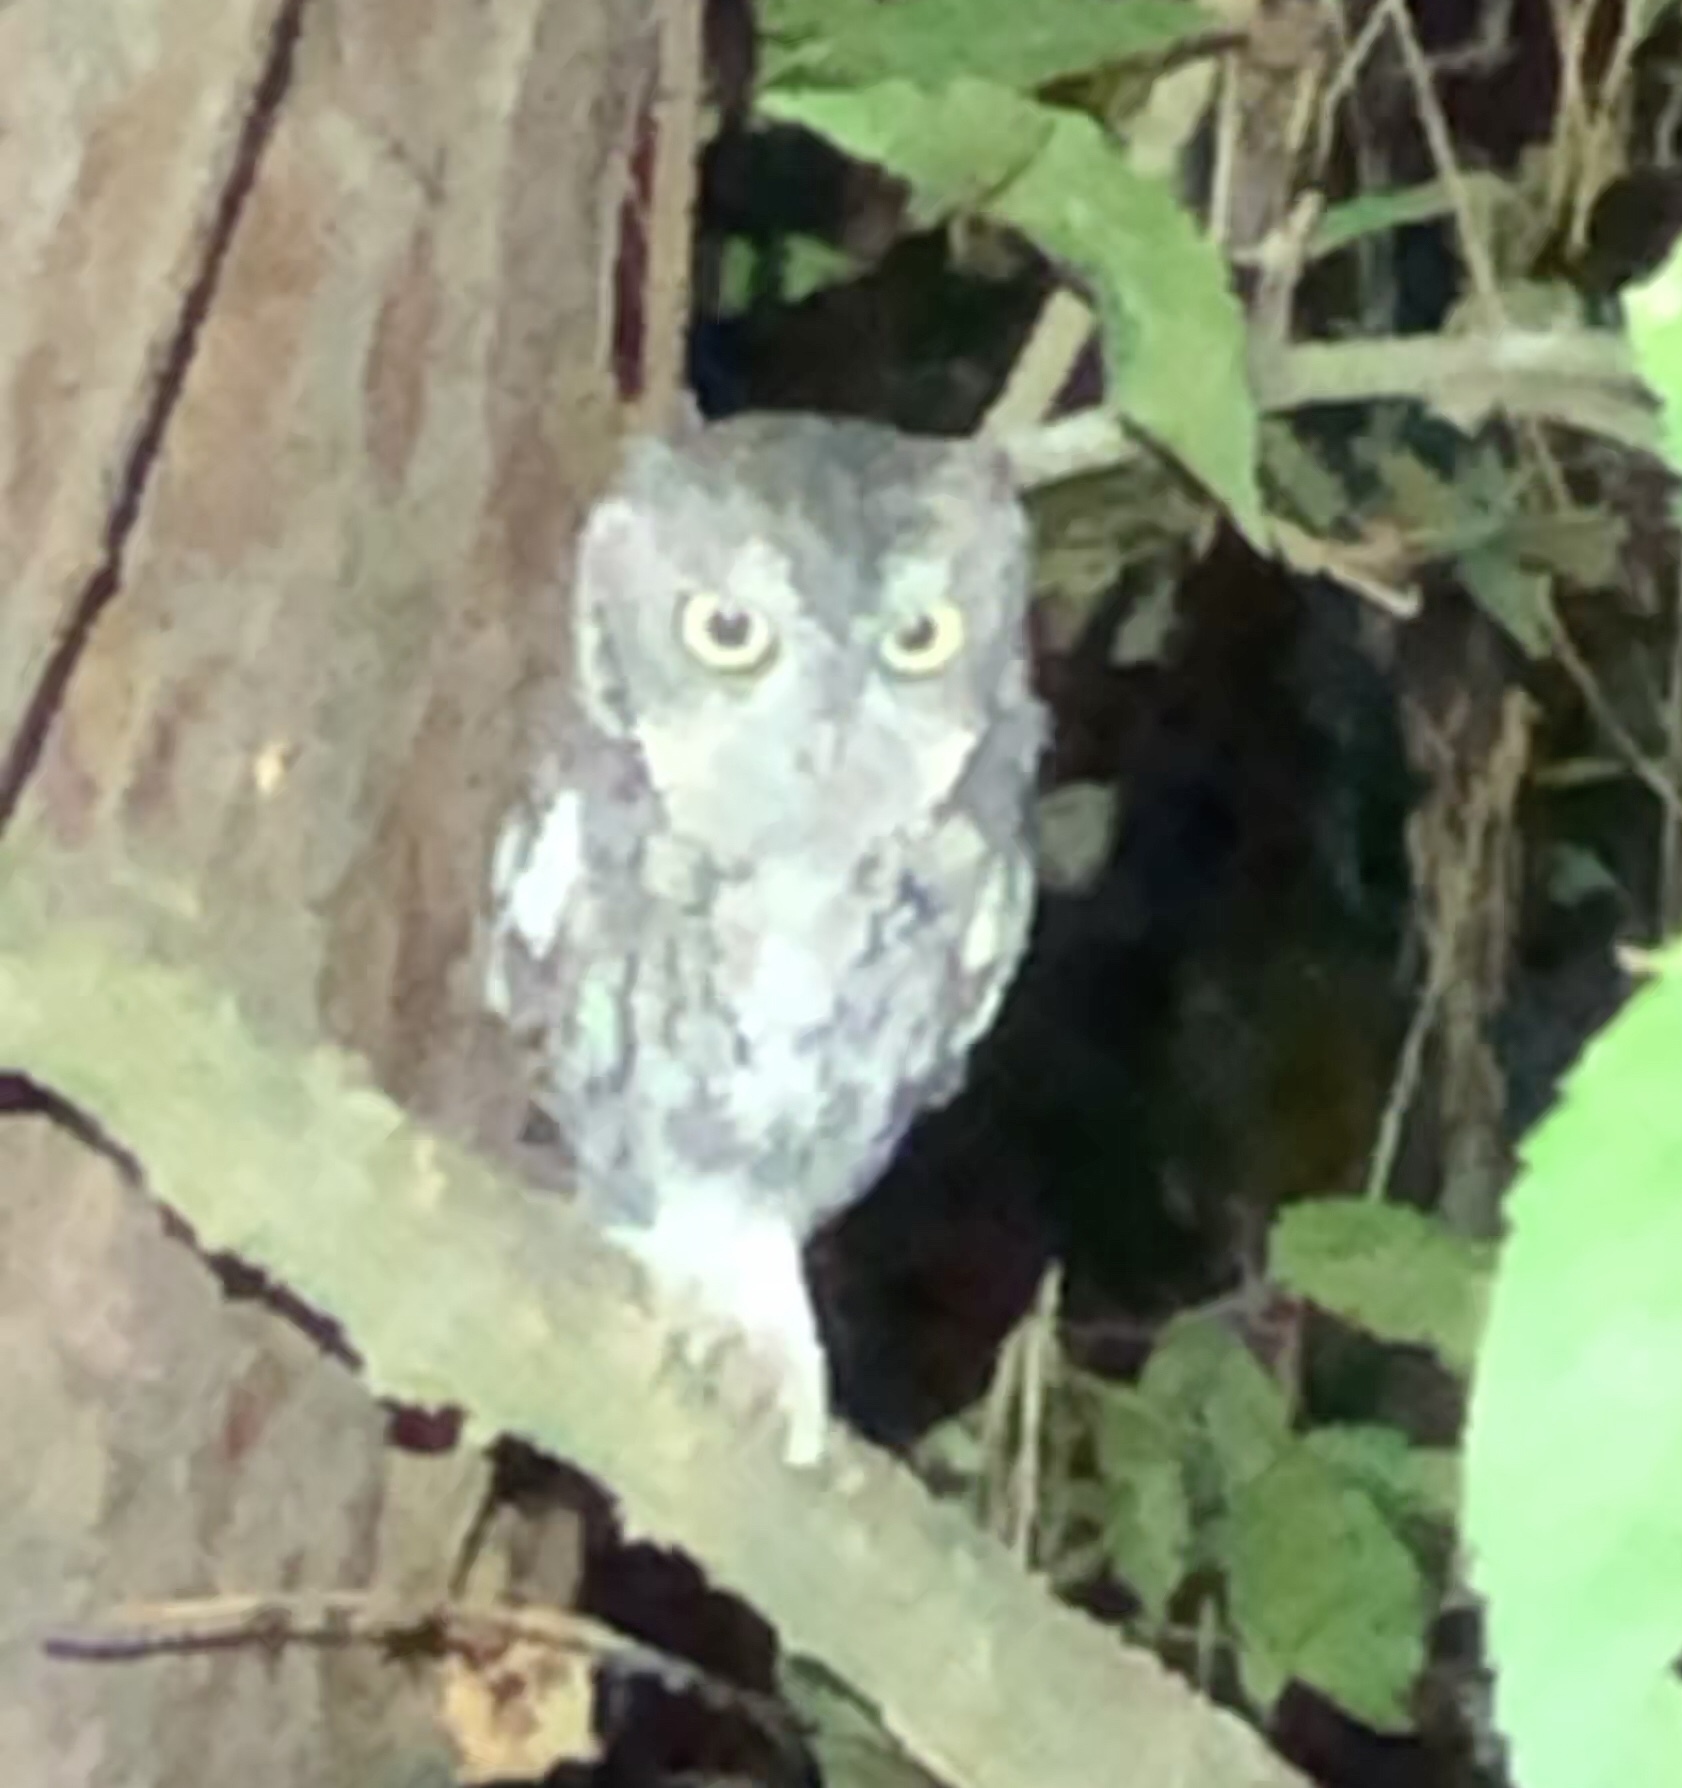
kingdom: Animalia
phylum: Chordata
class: Aves
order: Strigiformes
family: Strigidae
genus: Megascops
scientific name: Megascops asio
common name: Eastern screech-owl
